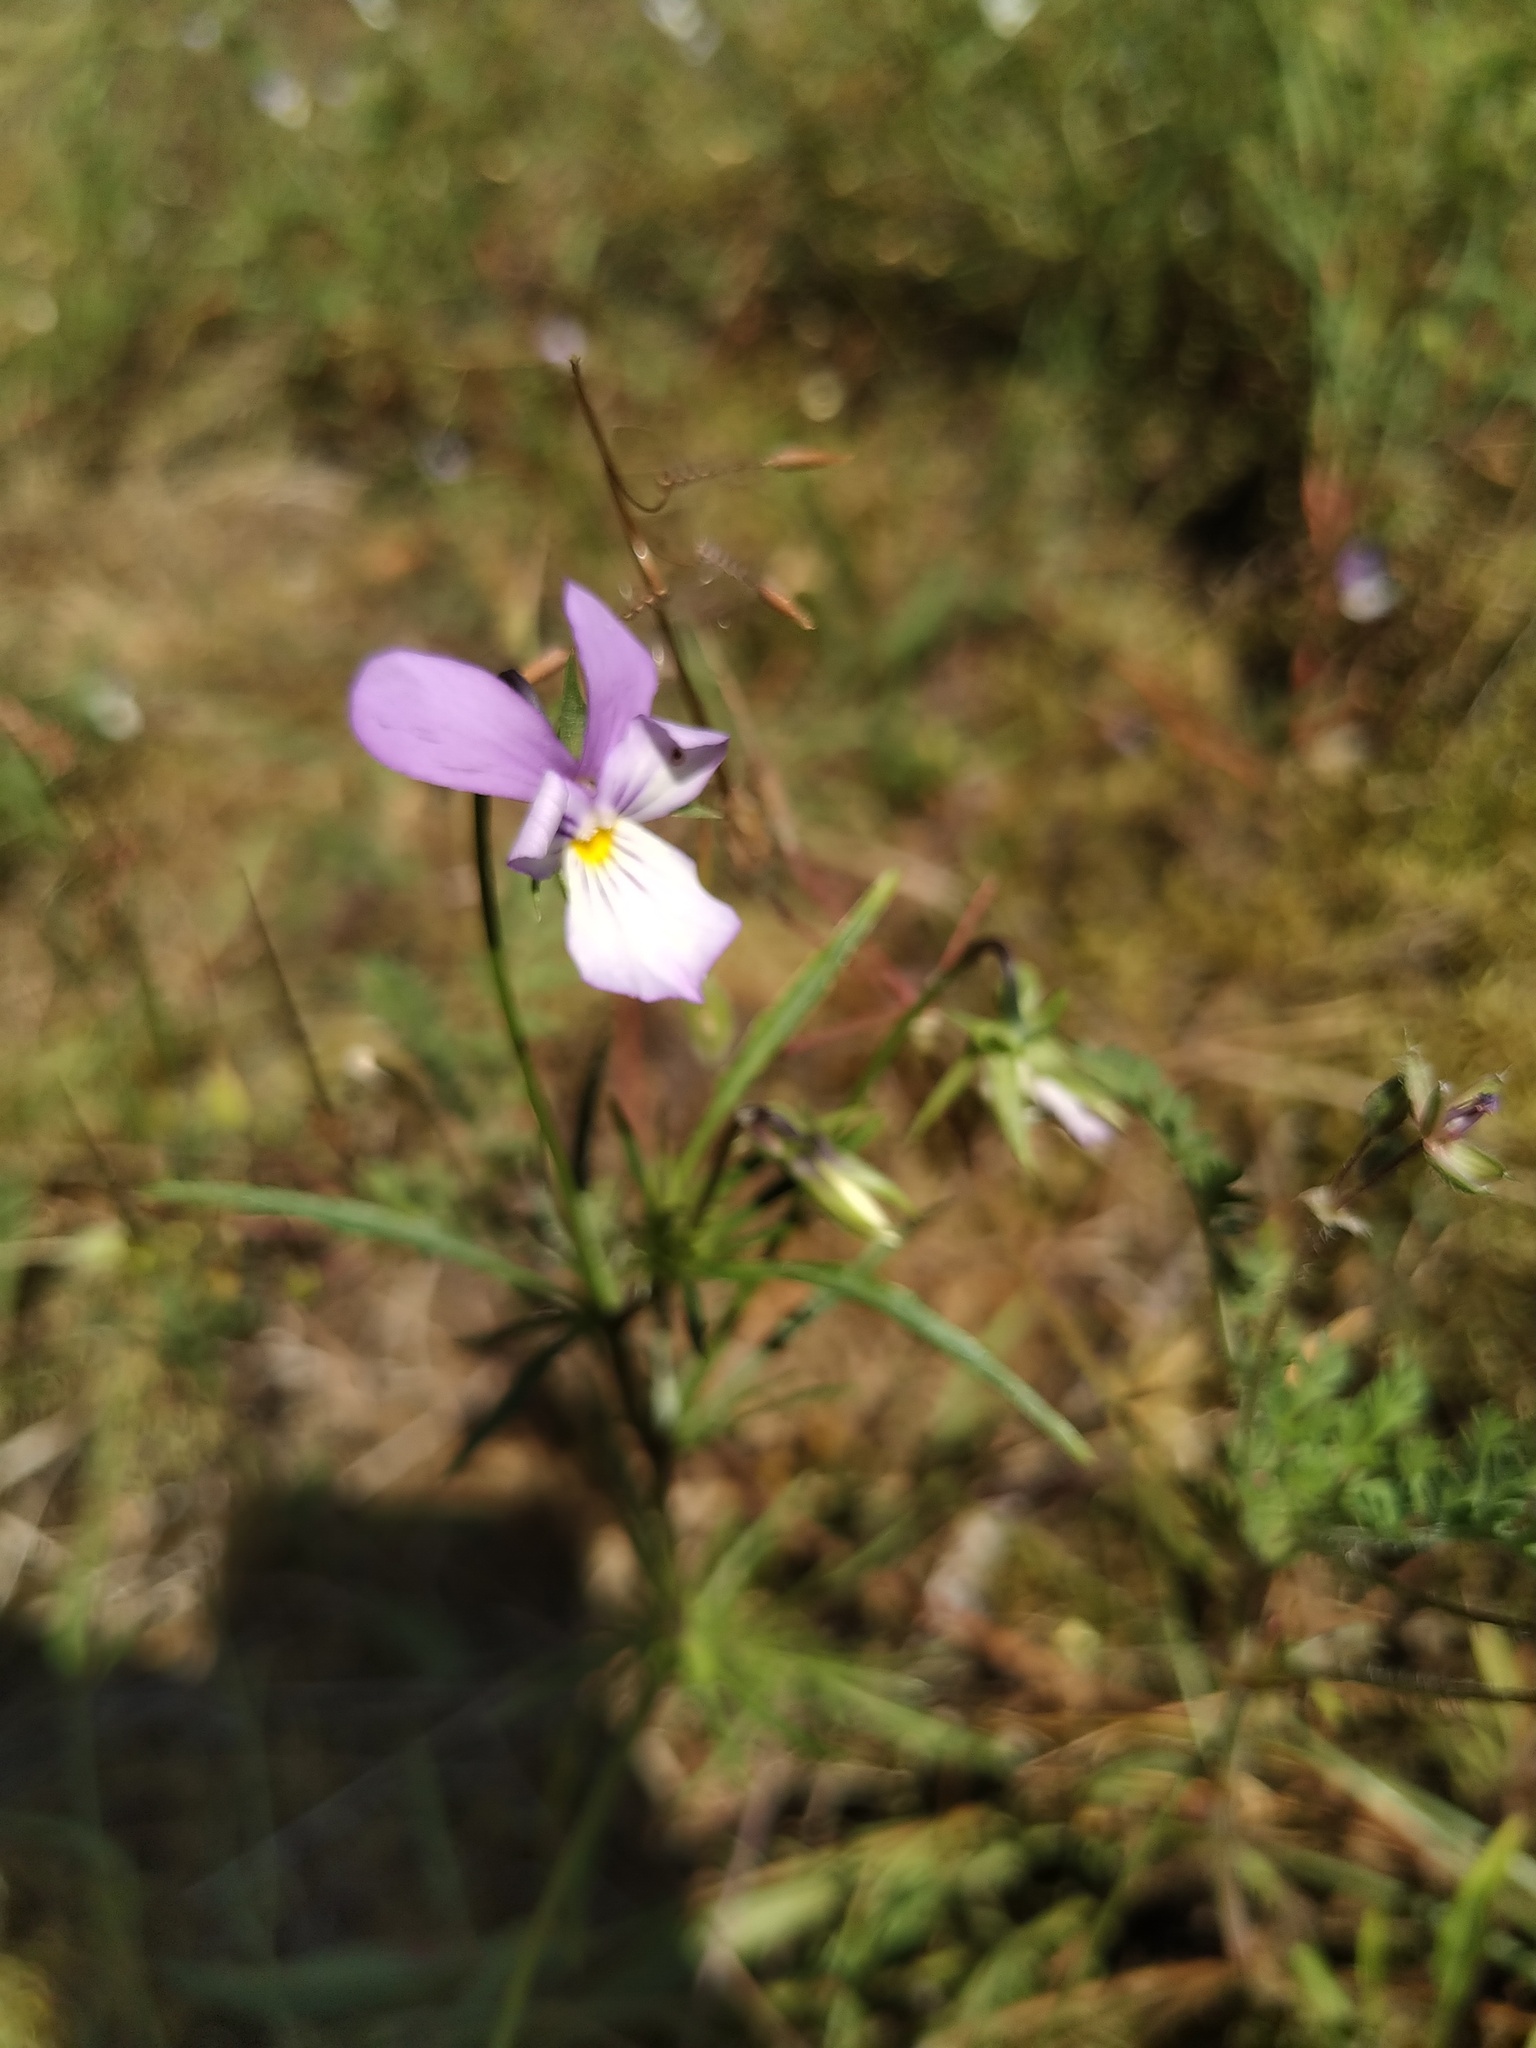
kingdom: Plantae
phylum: Tracheophyta
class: Magnoliopsida
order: Malpighiales
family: Violaceae
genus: Viola
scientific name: Viola tricolor
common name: Pansy
